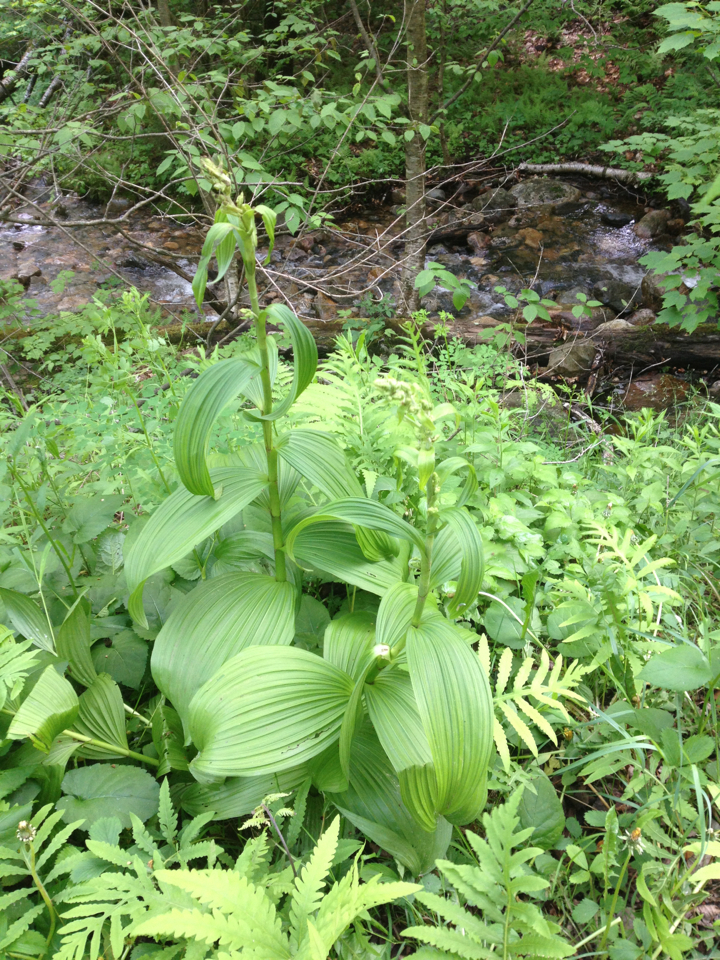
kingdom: Plantae
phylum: Tracheophyta
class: Liliopsida
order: Liliales
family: Melanthiaceae
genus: Veratrum
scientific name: Veratrum viride
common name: American false hellebore
